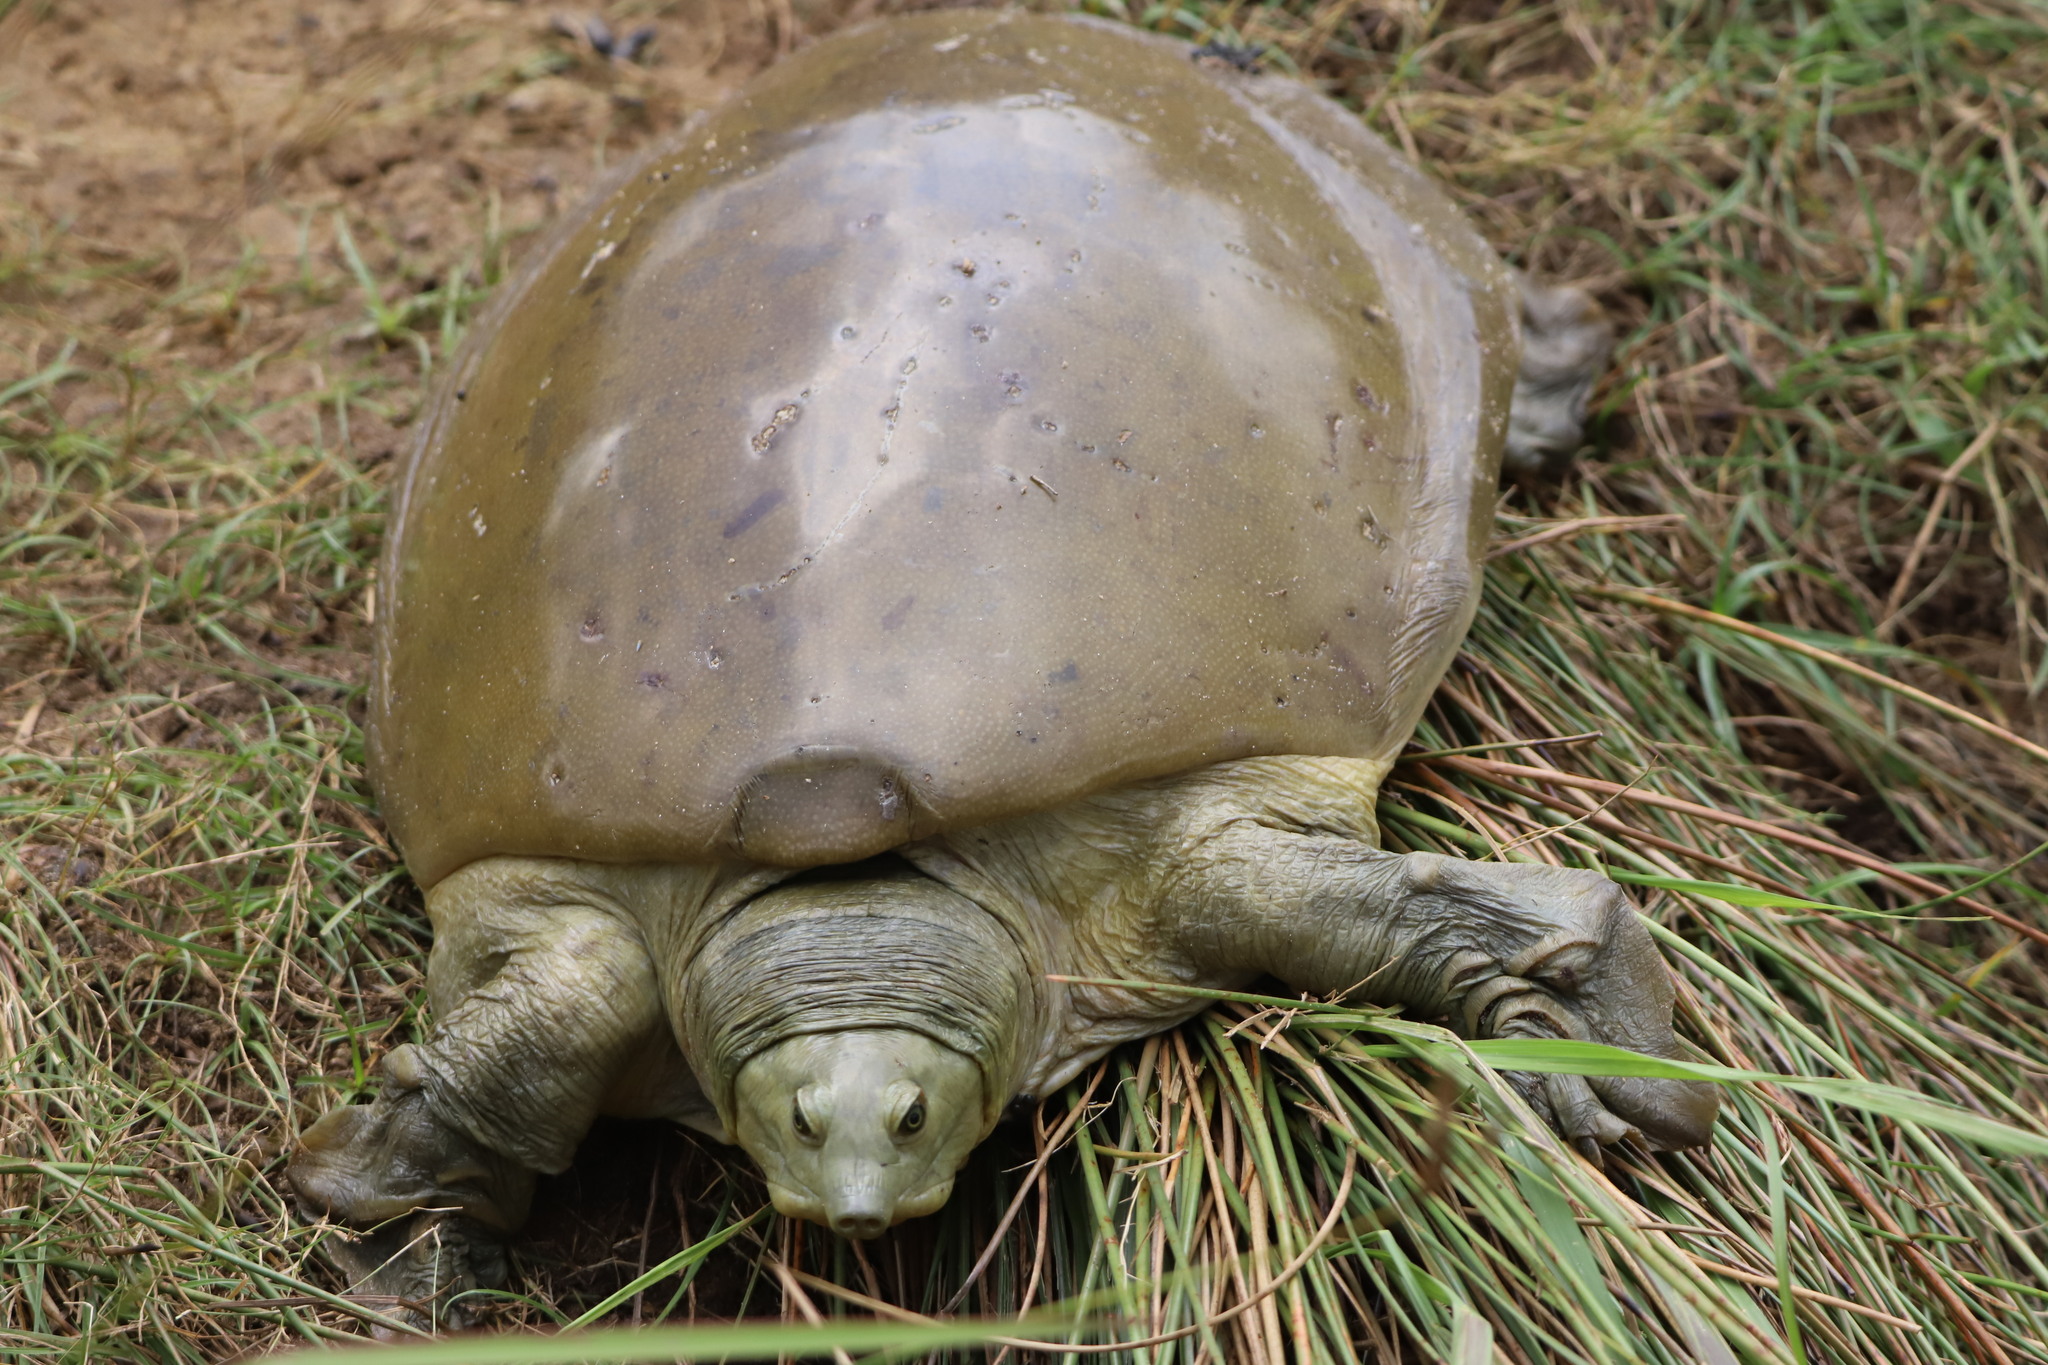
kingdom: Animalia
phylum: Chordata
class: Testudines
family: Trionychidae
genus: Lissemys
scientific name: Lissemys ceylonensis
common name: Sri lankan flapshell turtle
